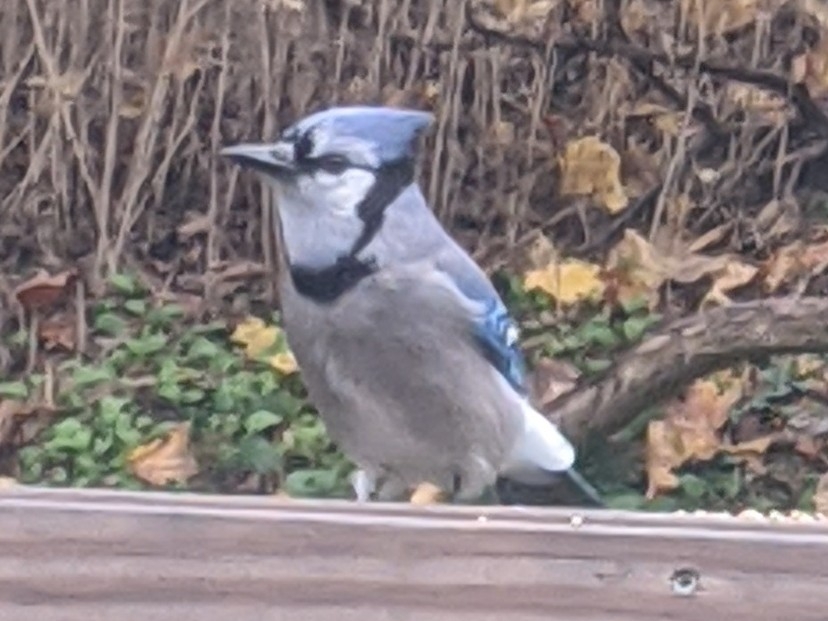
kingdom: Animalia
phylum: Chordata
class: Aves
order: Passeriformes
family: Corvidae
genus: Cyanocitta
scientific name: Cyanocitta cristata
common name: Blue jay
